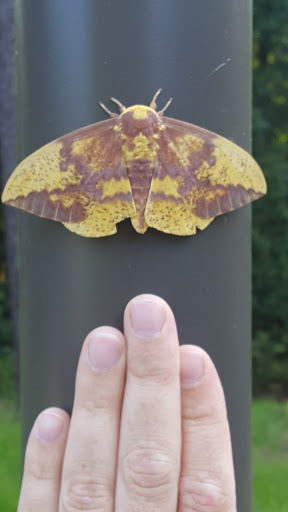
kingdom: Animalia
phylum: Arthropoda
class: Insecta
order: Lepidoptera
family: Saturniidae
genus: Eacles
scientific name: Eacles imperialis
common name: Imperial moth
